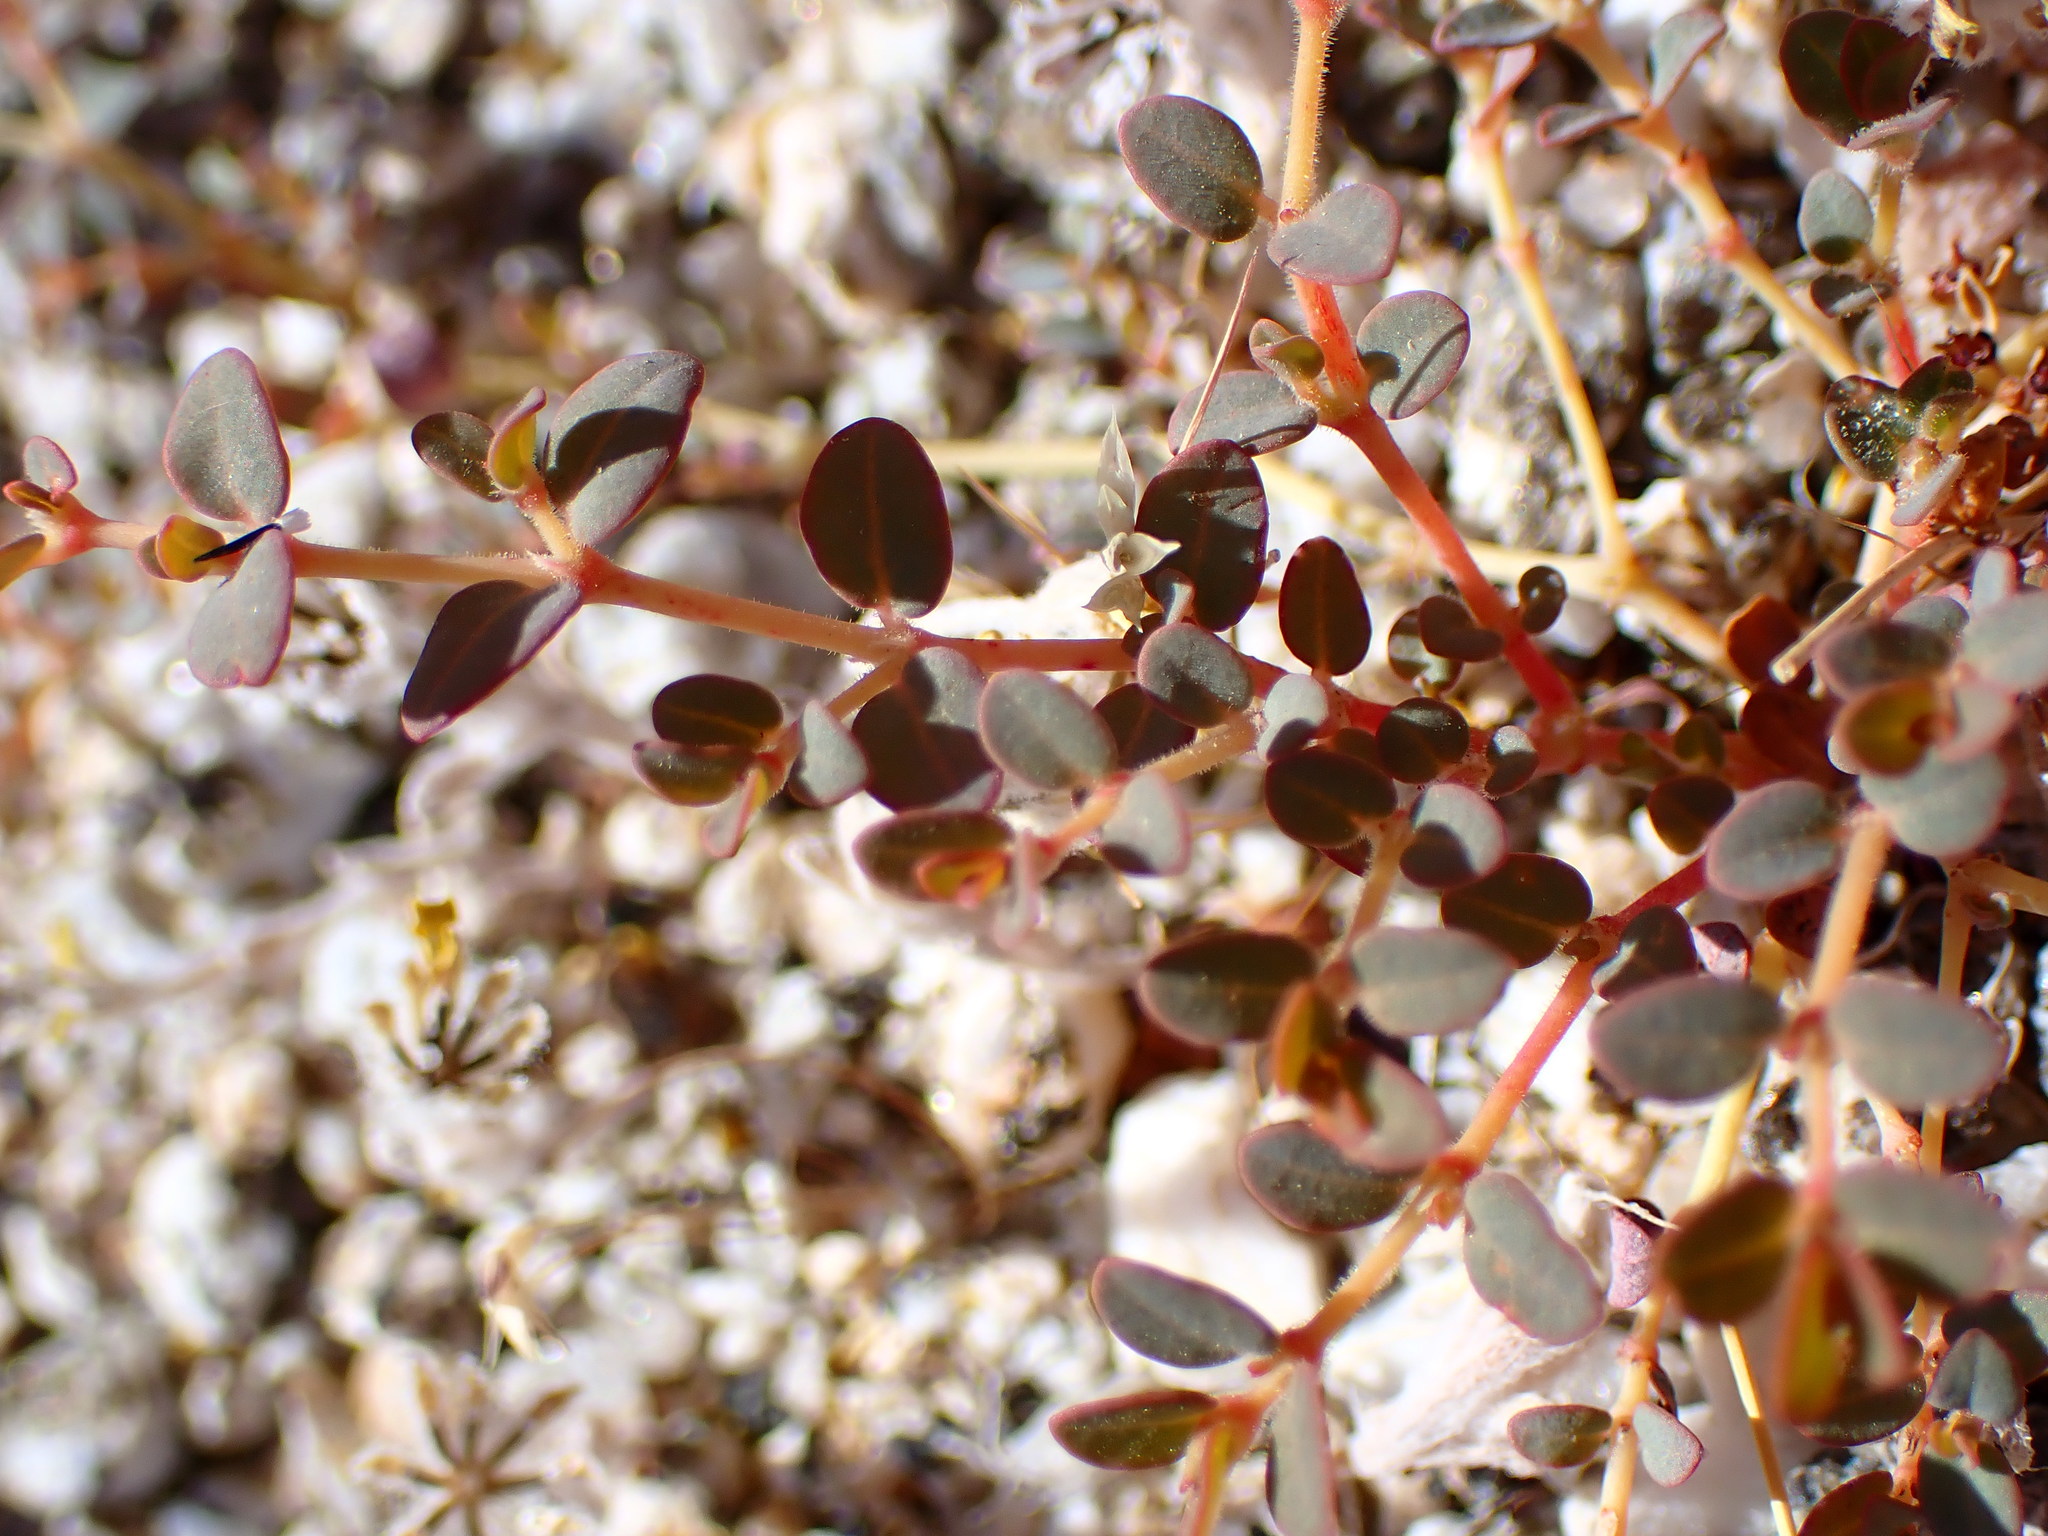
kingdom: Plantae
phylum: Tracheophyta
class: Magnoliopsida
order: Malpighiales
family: Euphorbiaceae
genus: Euphorbia
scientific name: Euphorbia polycarpa
